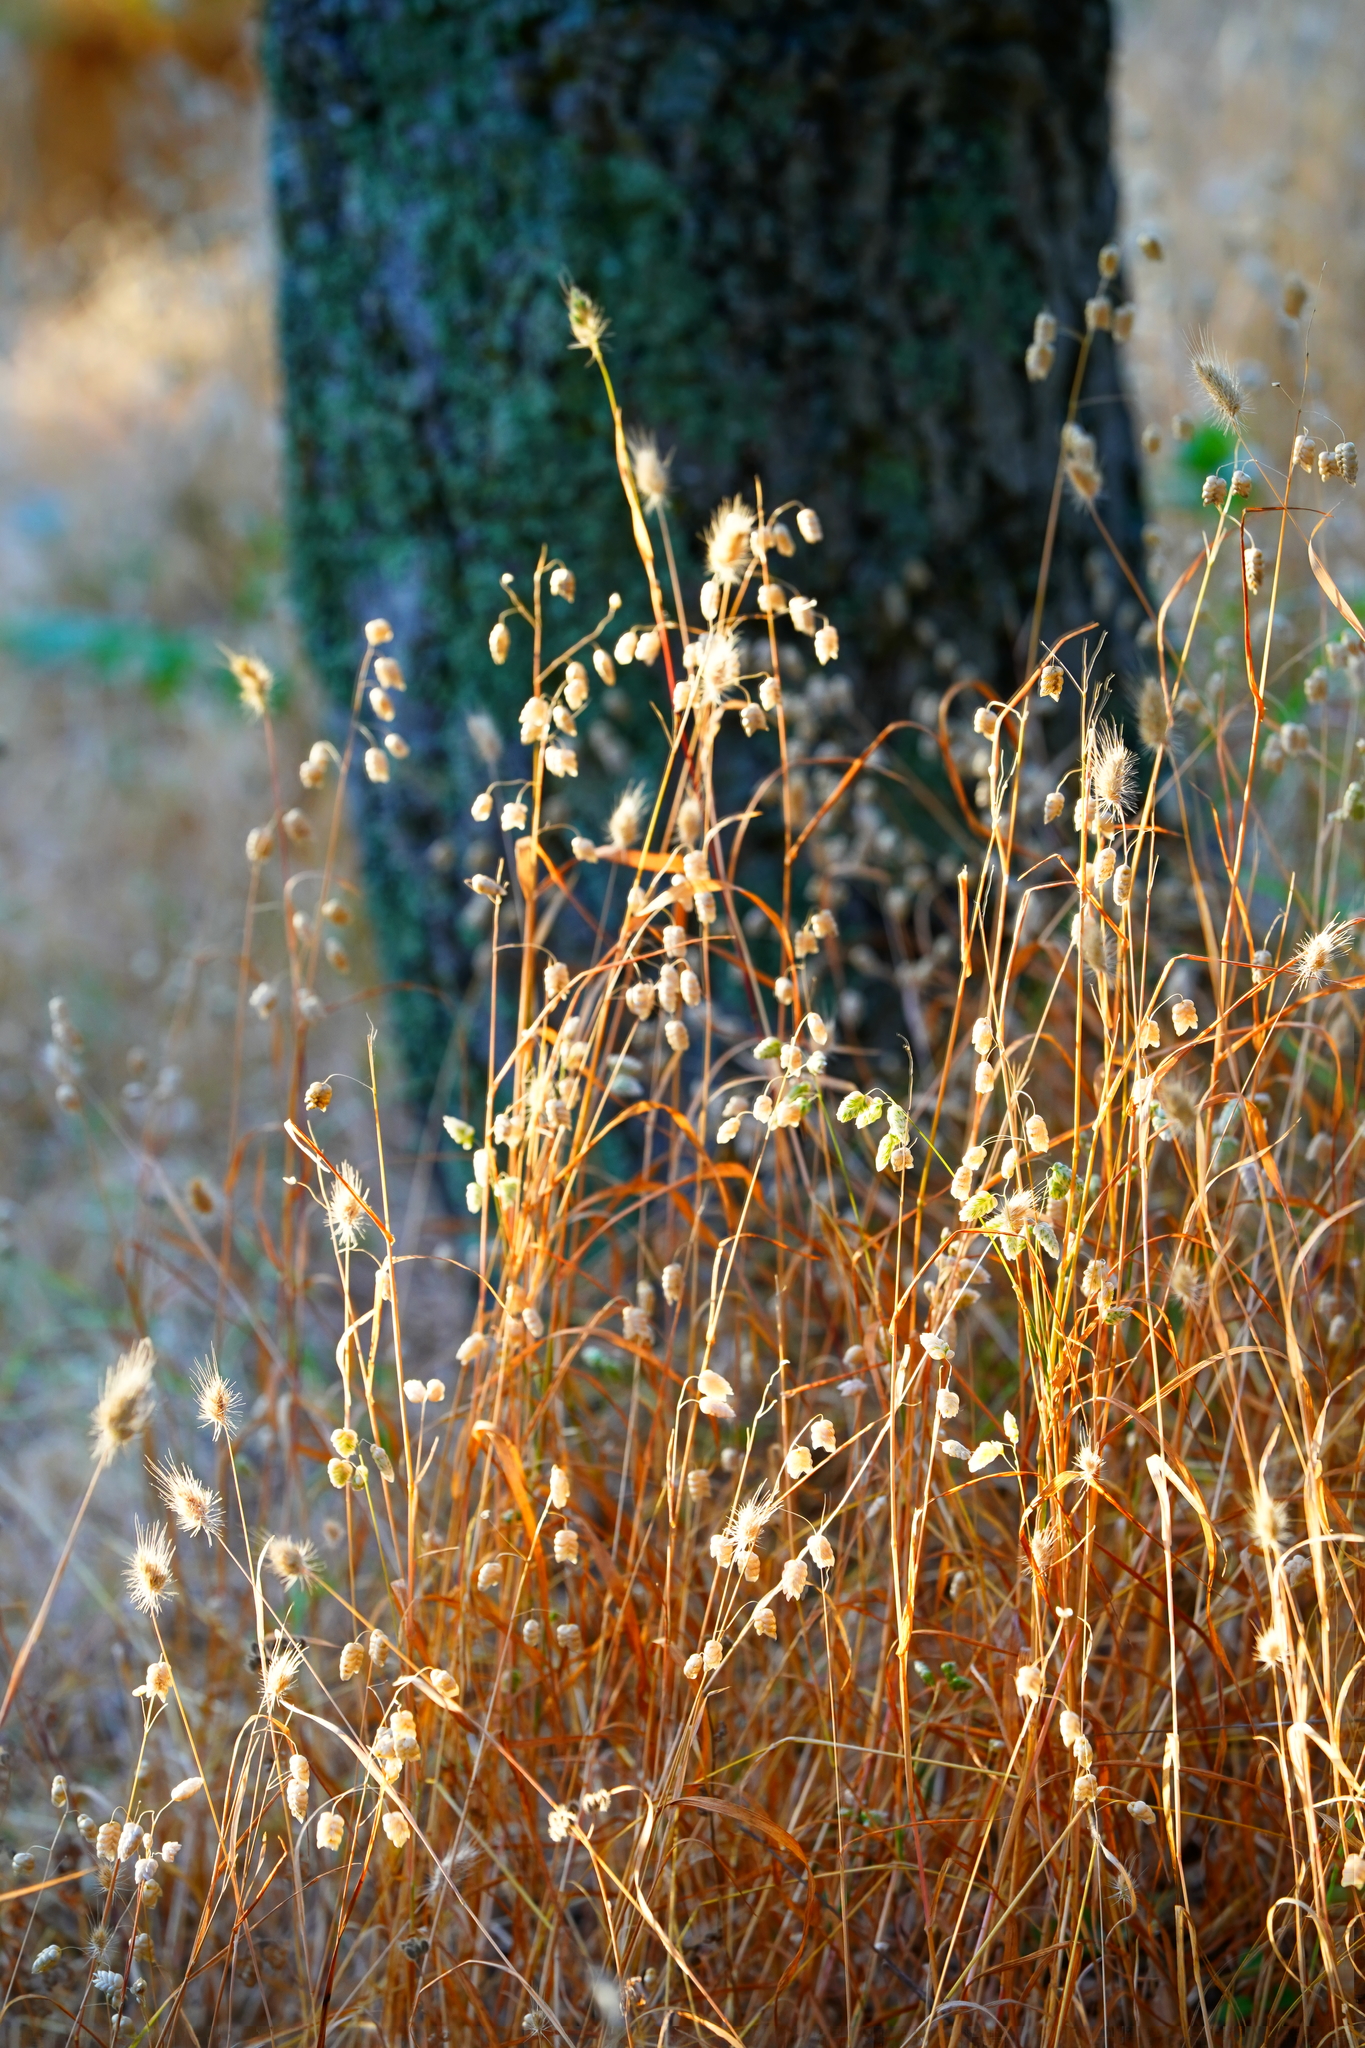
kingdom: Plantae
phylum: Tracheophyta
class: Liliopsida
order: Poales
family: Poaceae
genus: Briza
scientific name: Briza maxima
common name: Big quakinggrass
